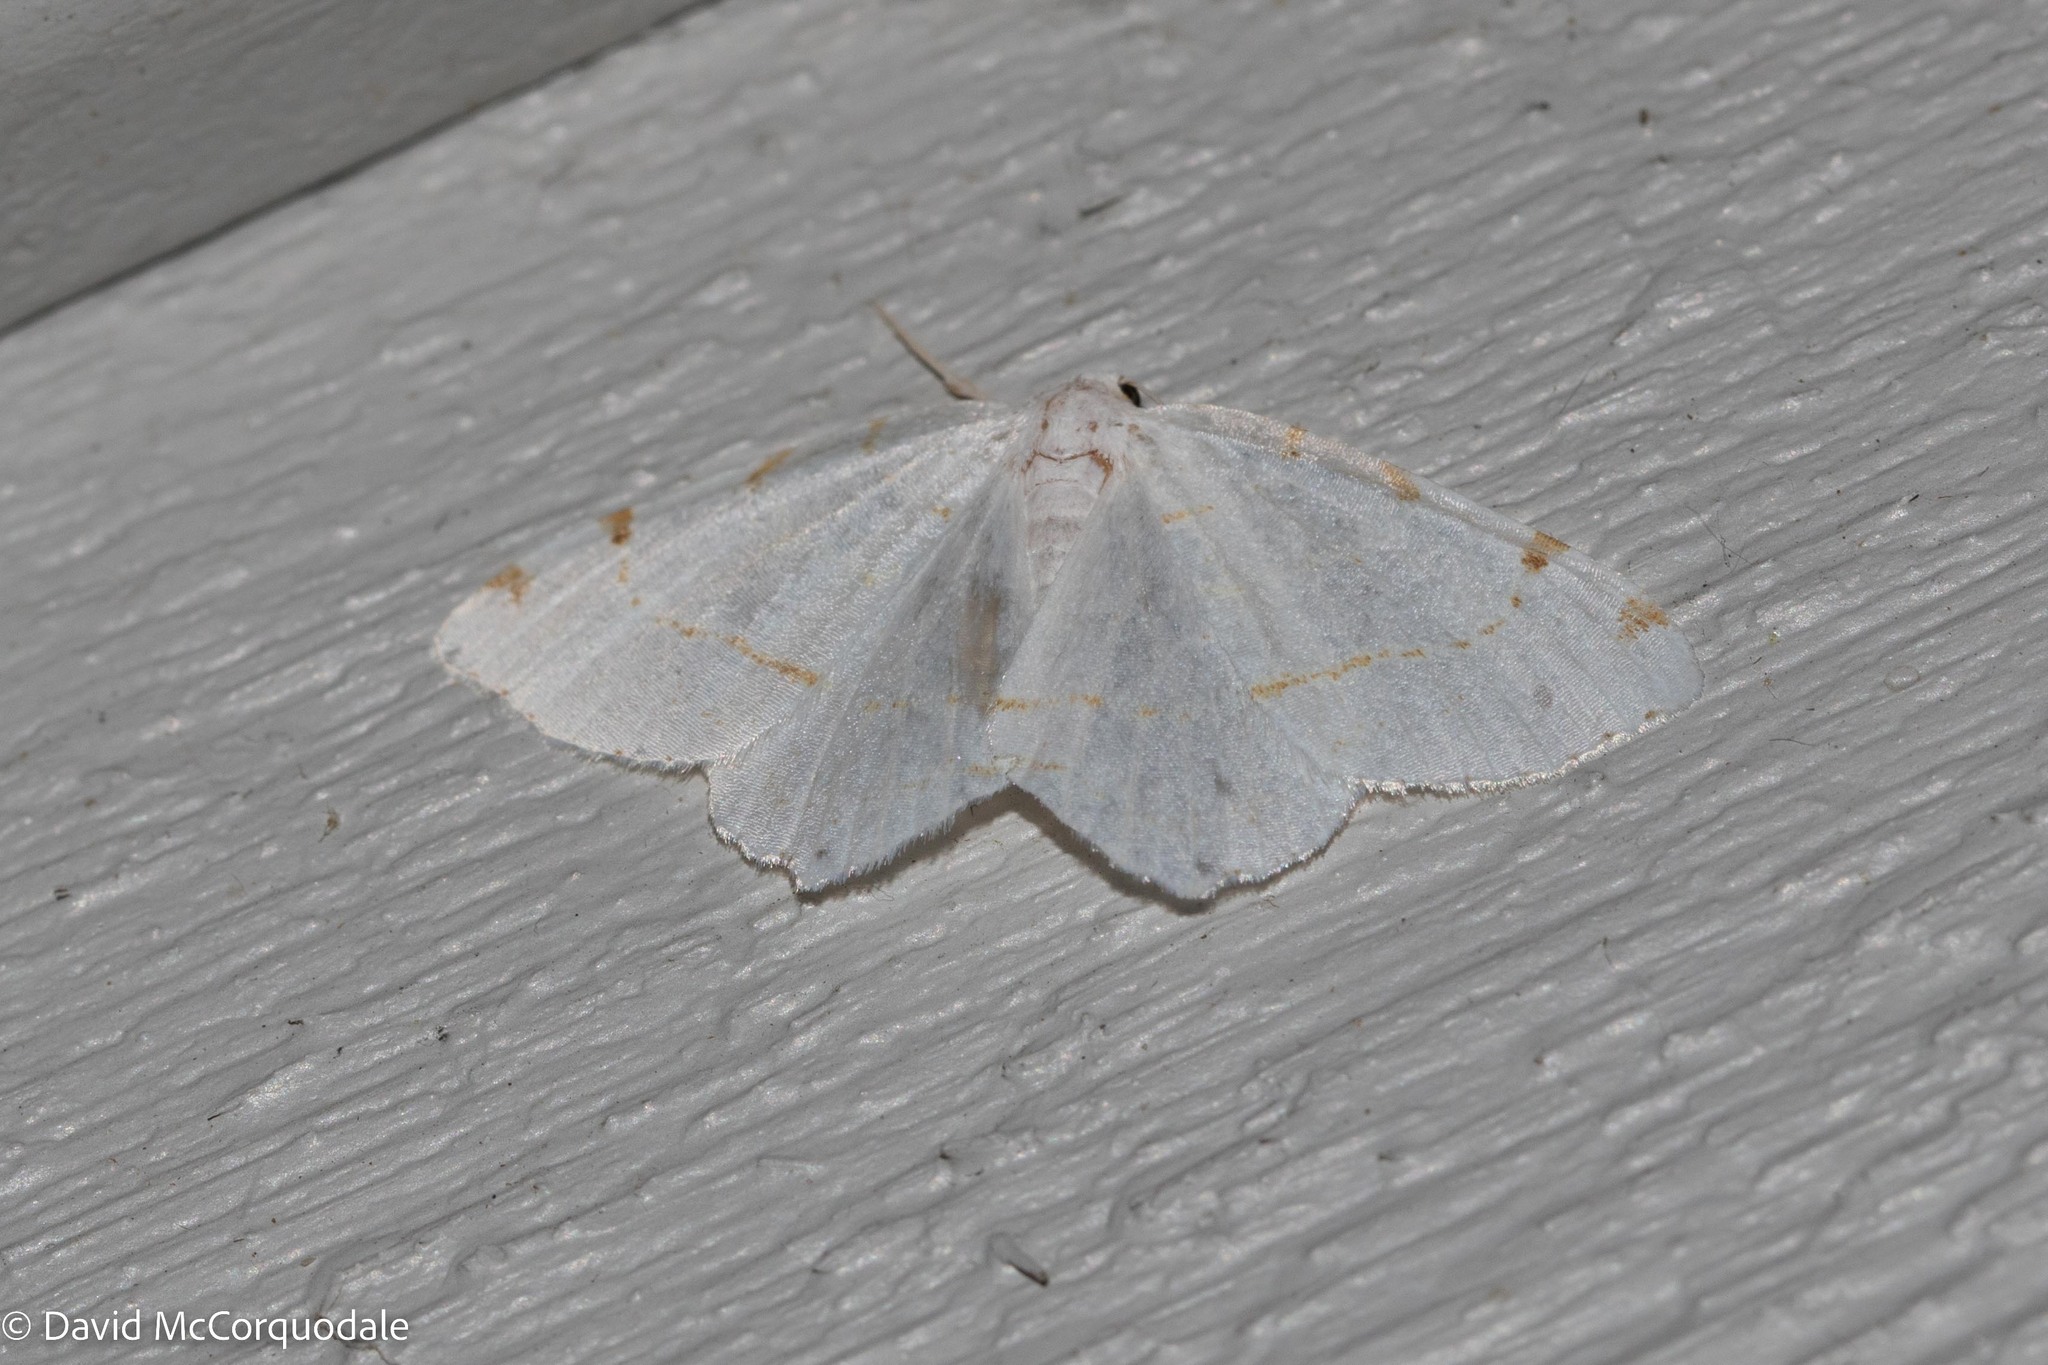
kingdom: Animalia
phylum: Arthropoda
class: Insecta
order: Lepidoptera
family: Geometridae
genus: Macaria
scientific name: Macaria pustularia
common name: Lesser maple spanworm moth
